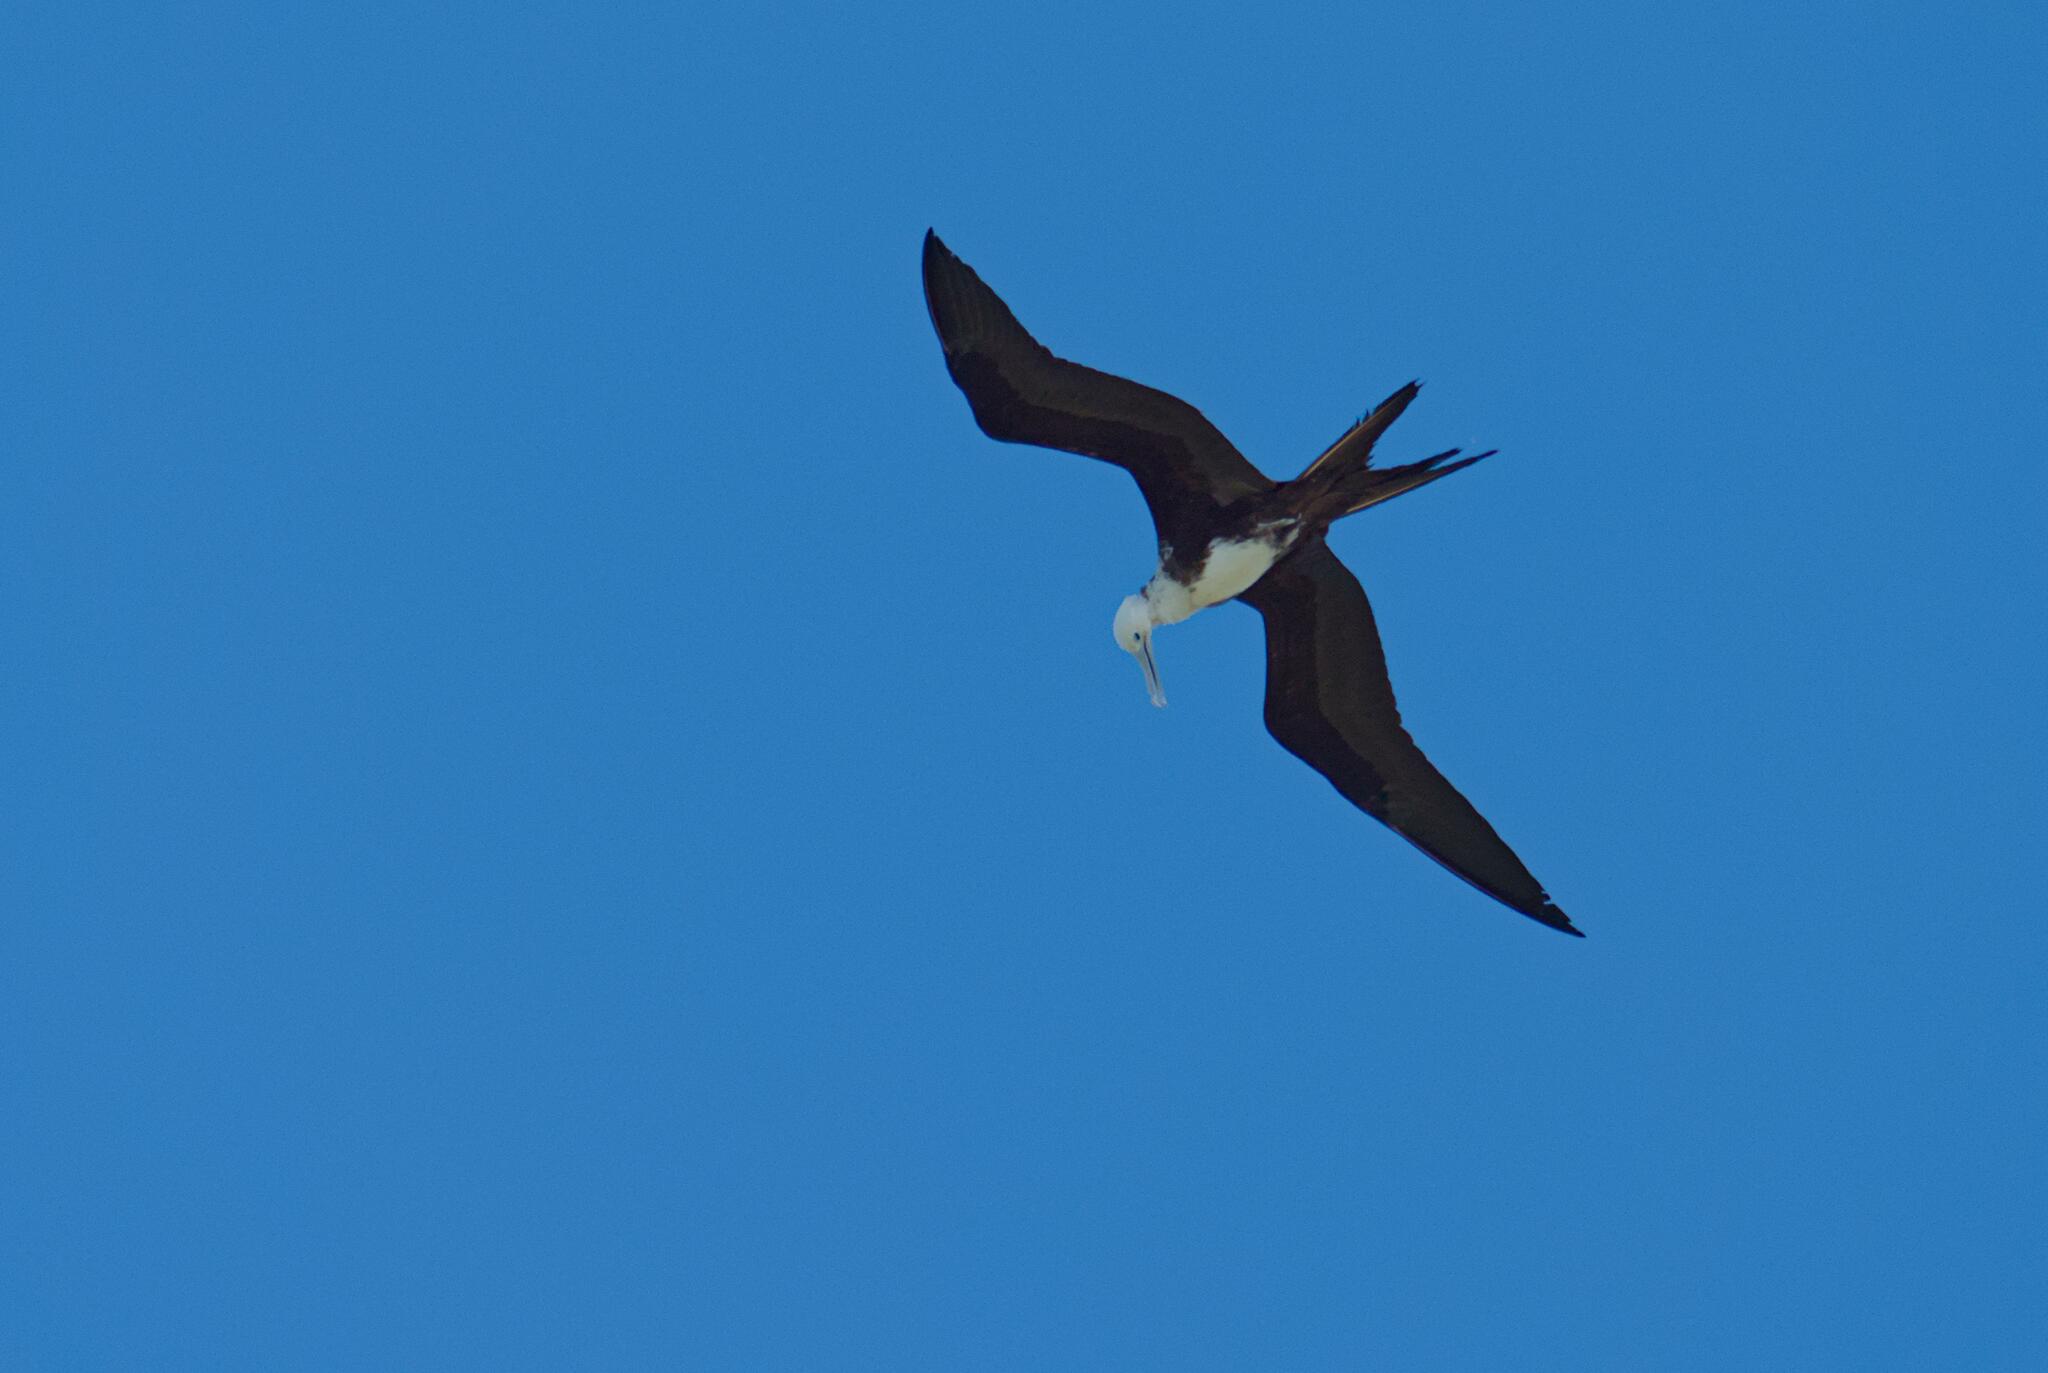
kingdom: Animalia
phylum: Chordata
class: Aves
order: Suliformes
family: Fregatidae
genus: Fregata
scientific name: Fregata magnificens
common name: Magnificent frigatebird
